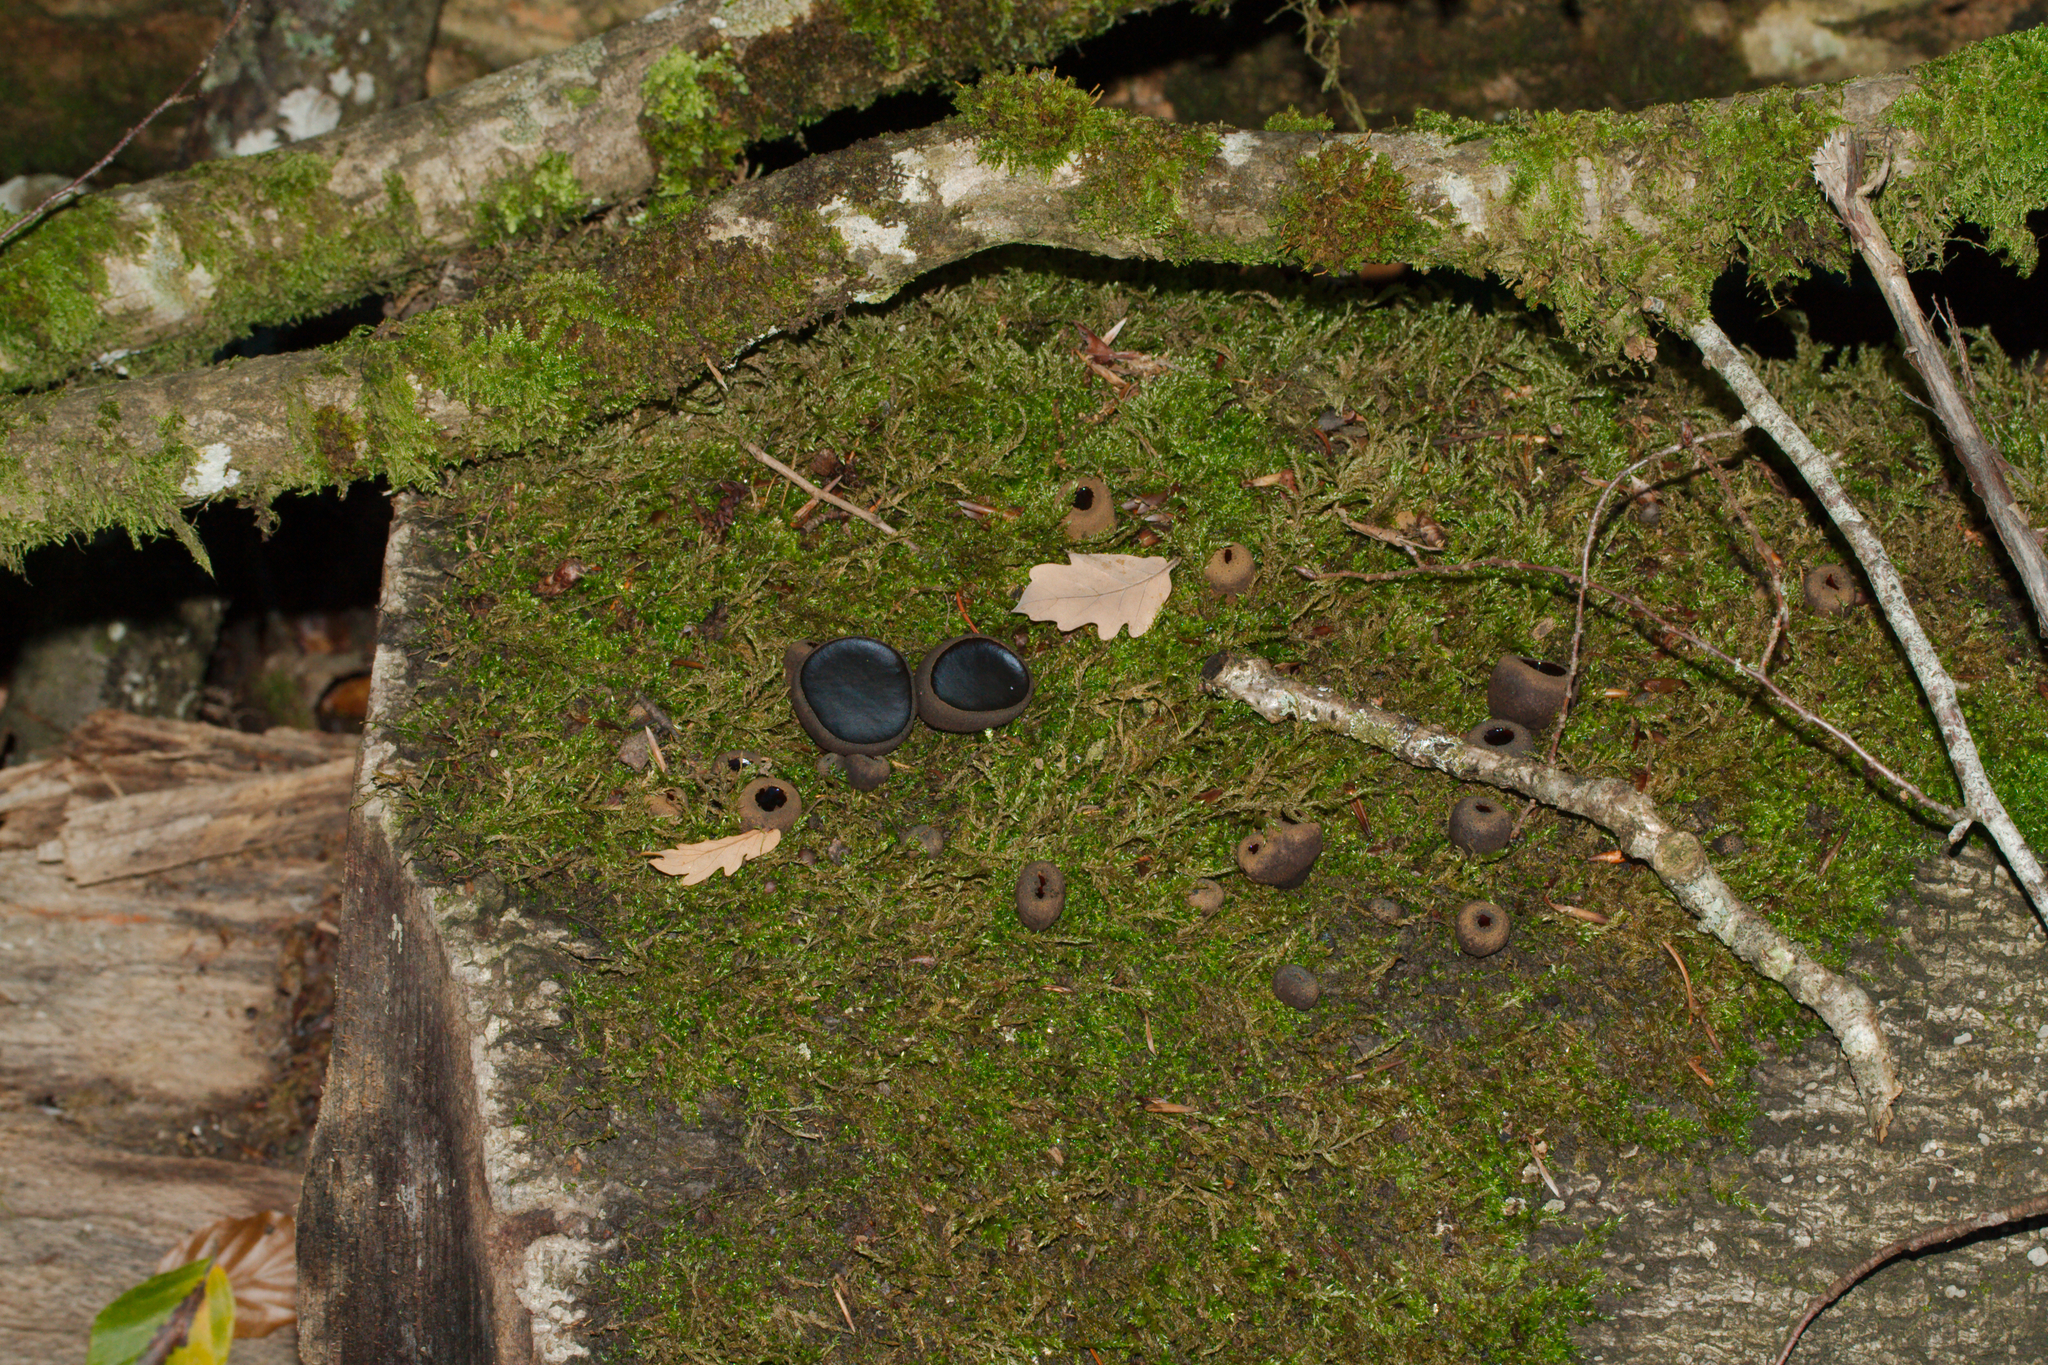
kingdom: Fungi
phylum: Ascomycota
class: Leotiomycetes
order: Phacidiales
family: Phacidiaceae
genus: Bulgaria
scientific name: Bulgaria inquinans
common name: Black bulgar
